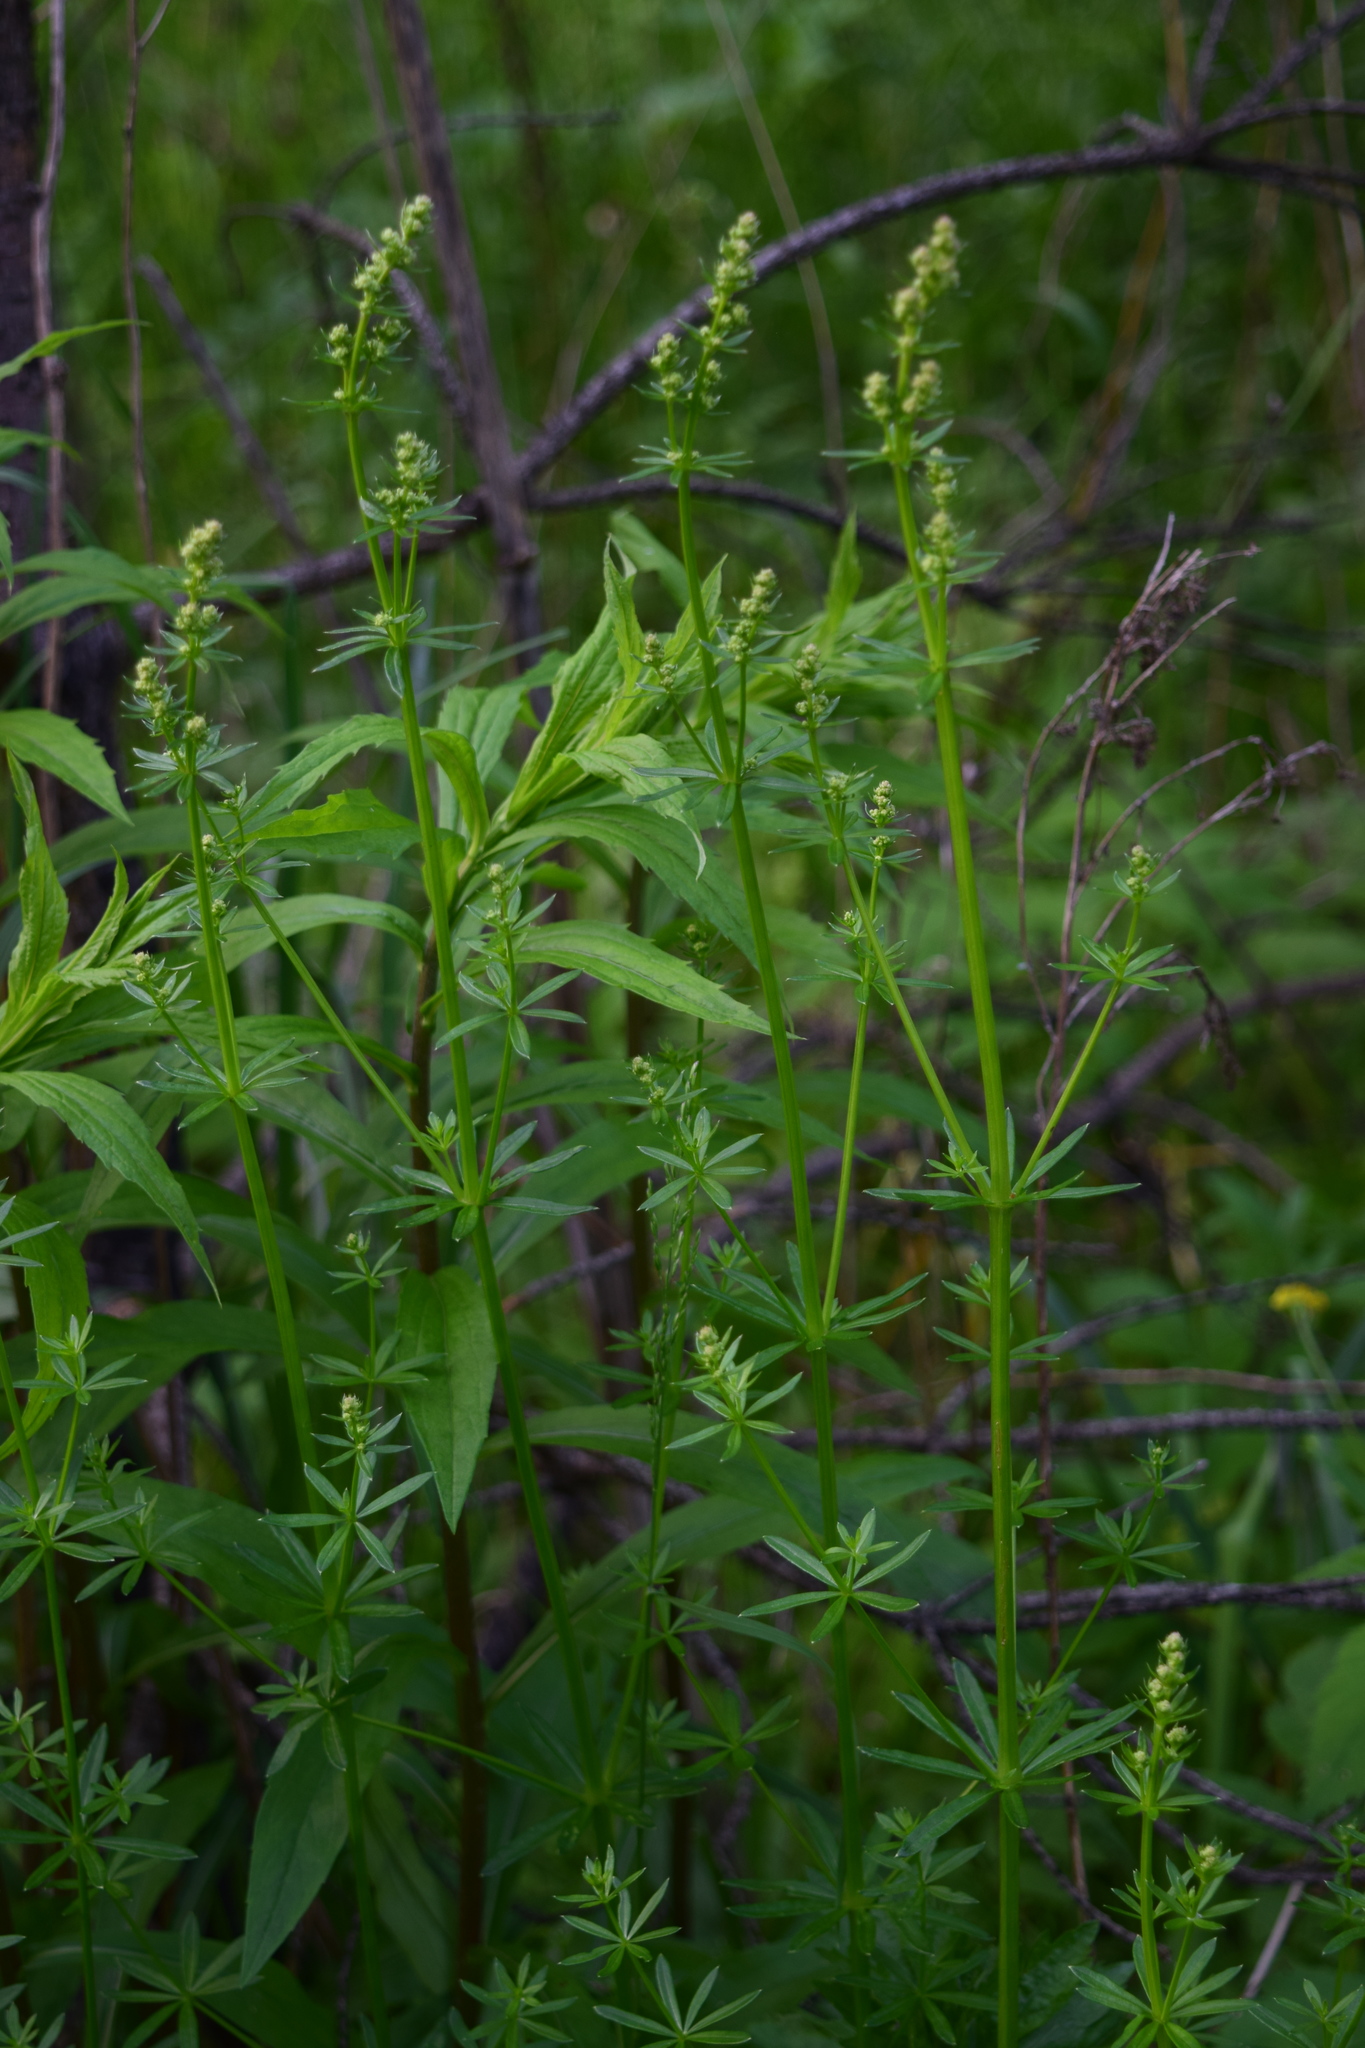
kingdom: Plantae
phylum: Tracheophyta
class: Magnoliopsida
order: Gentianales
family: Rubiaceae
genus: Galium
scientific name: Galium mollugo
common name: Hedge bedstraw
